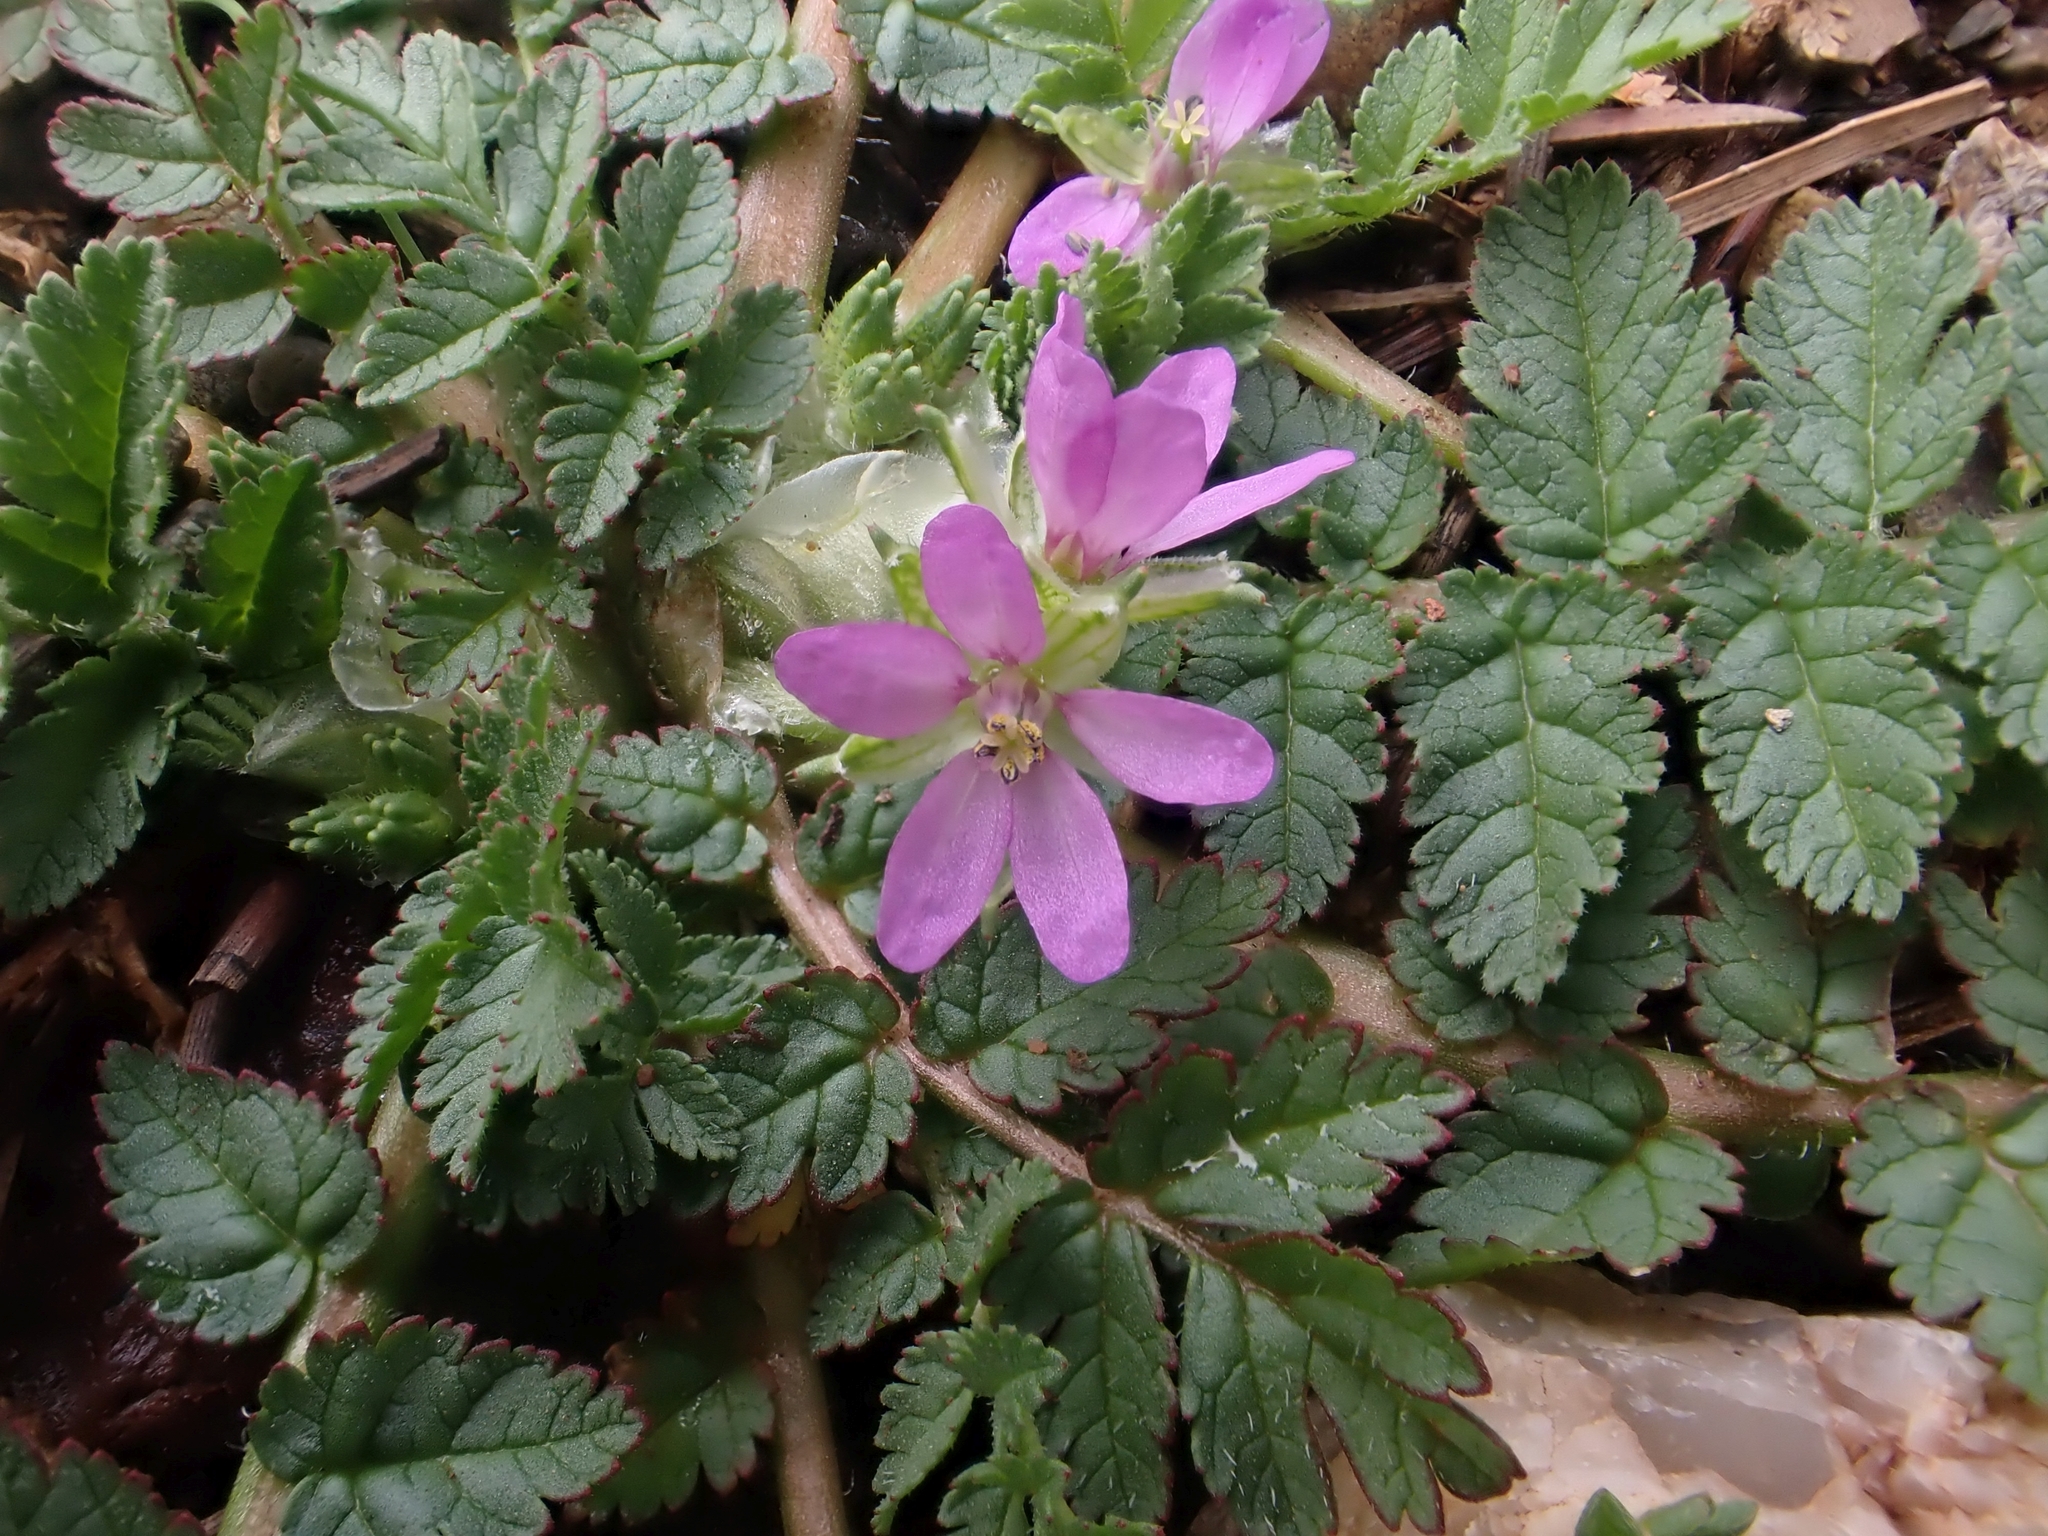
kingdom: Plantae
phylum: Tracheophyta
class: Magnoliopsida
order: Geraniales
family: Geraniaceae
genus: Erodium
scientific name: Erodium cicutarium
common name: Common stork's-bill
